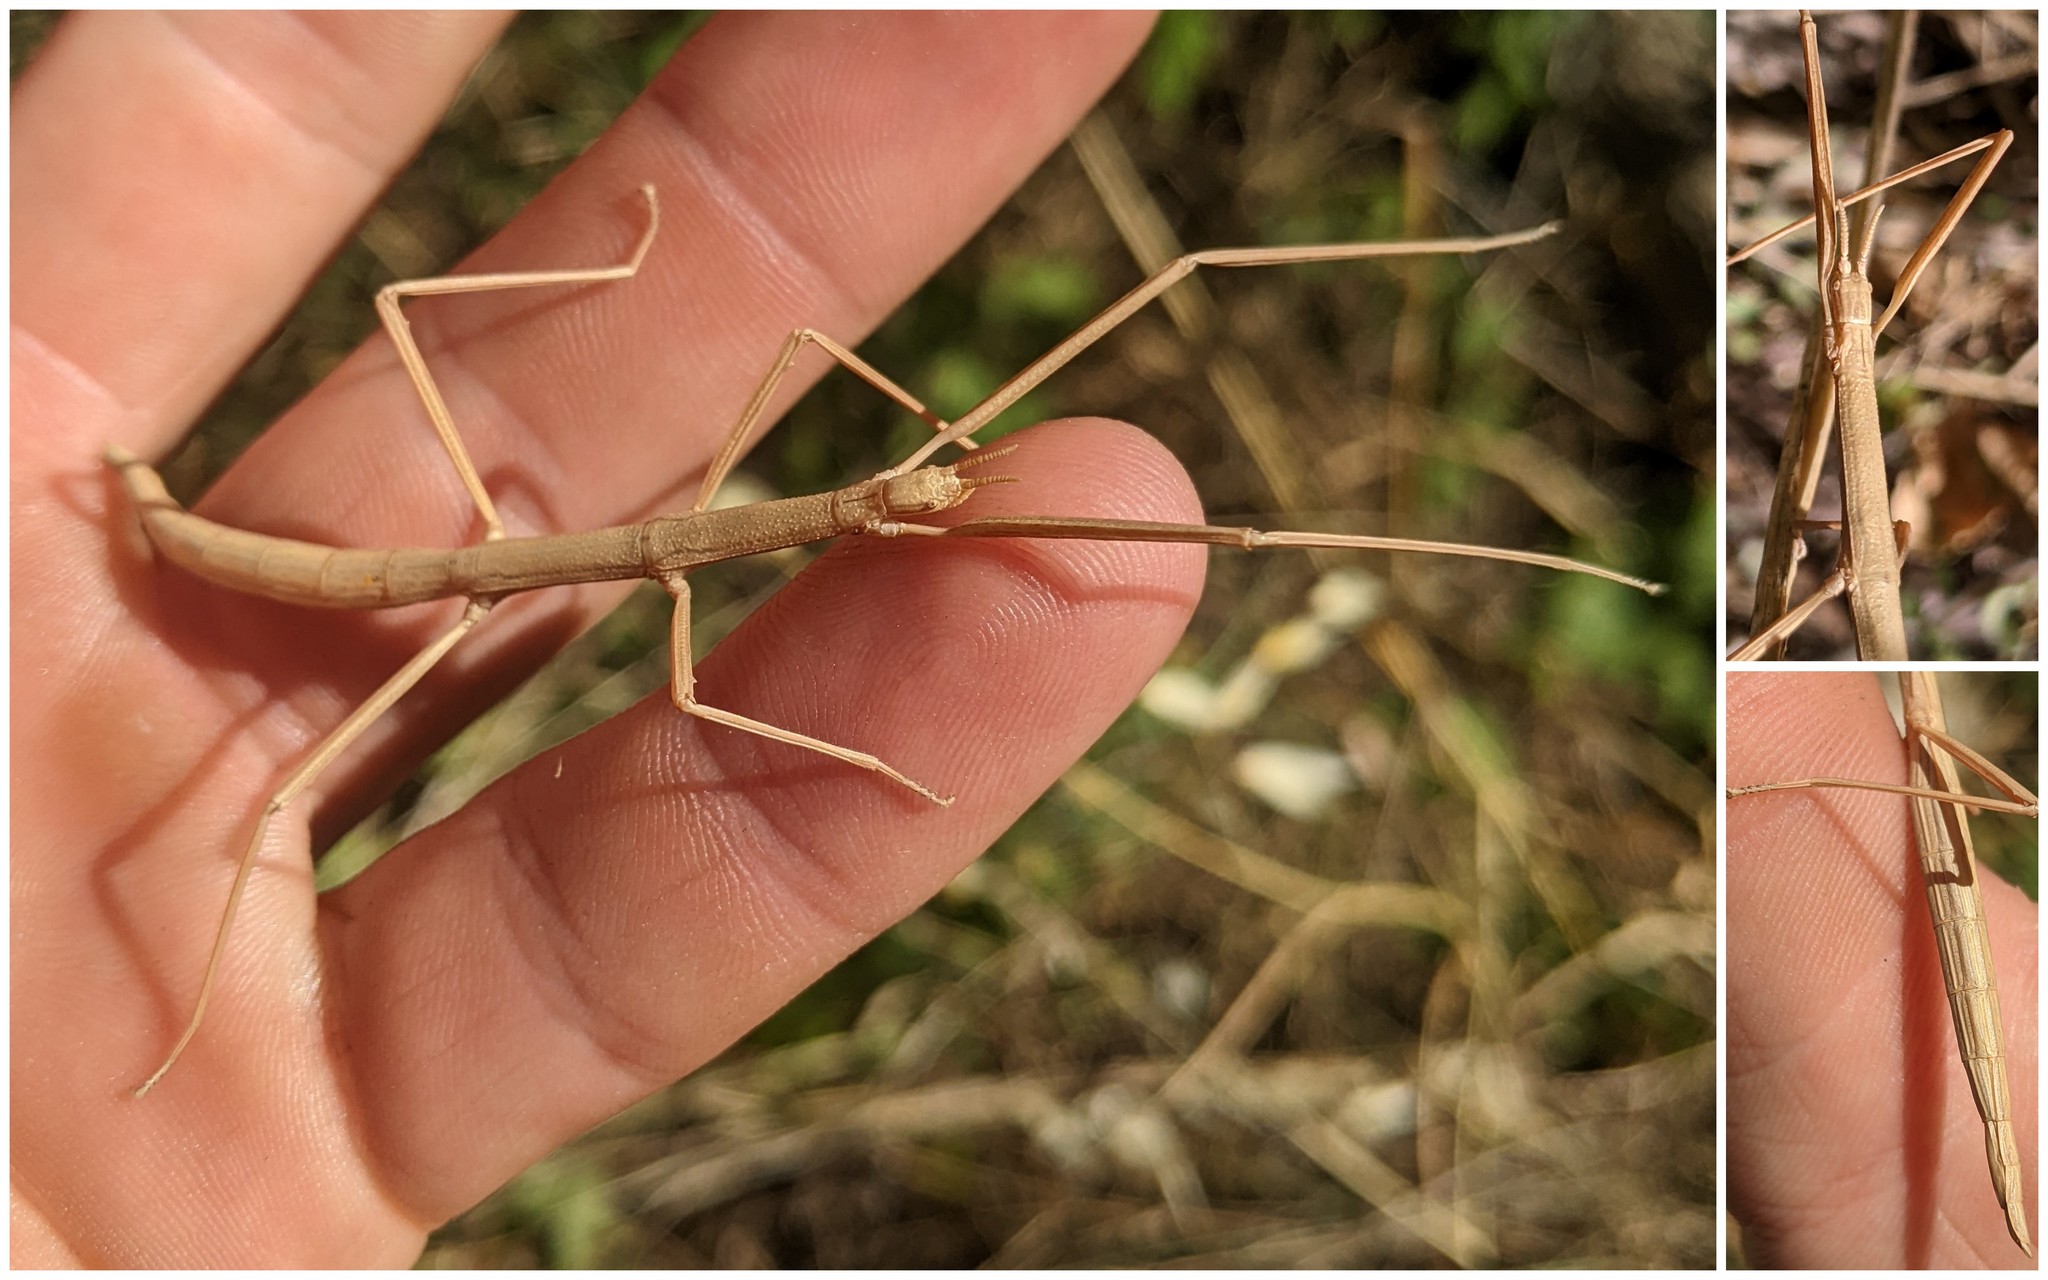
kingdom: Animalia
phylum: Arthropoda
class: Insecta
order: Phasmida
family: Bacillidae
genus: Clonopsis
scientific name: Clonopsis gallica
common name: French stick insect
